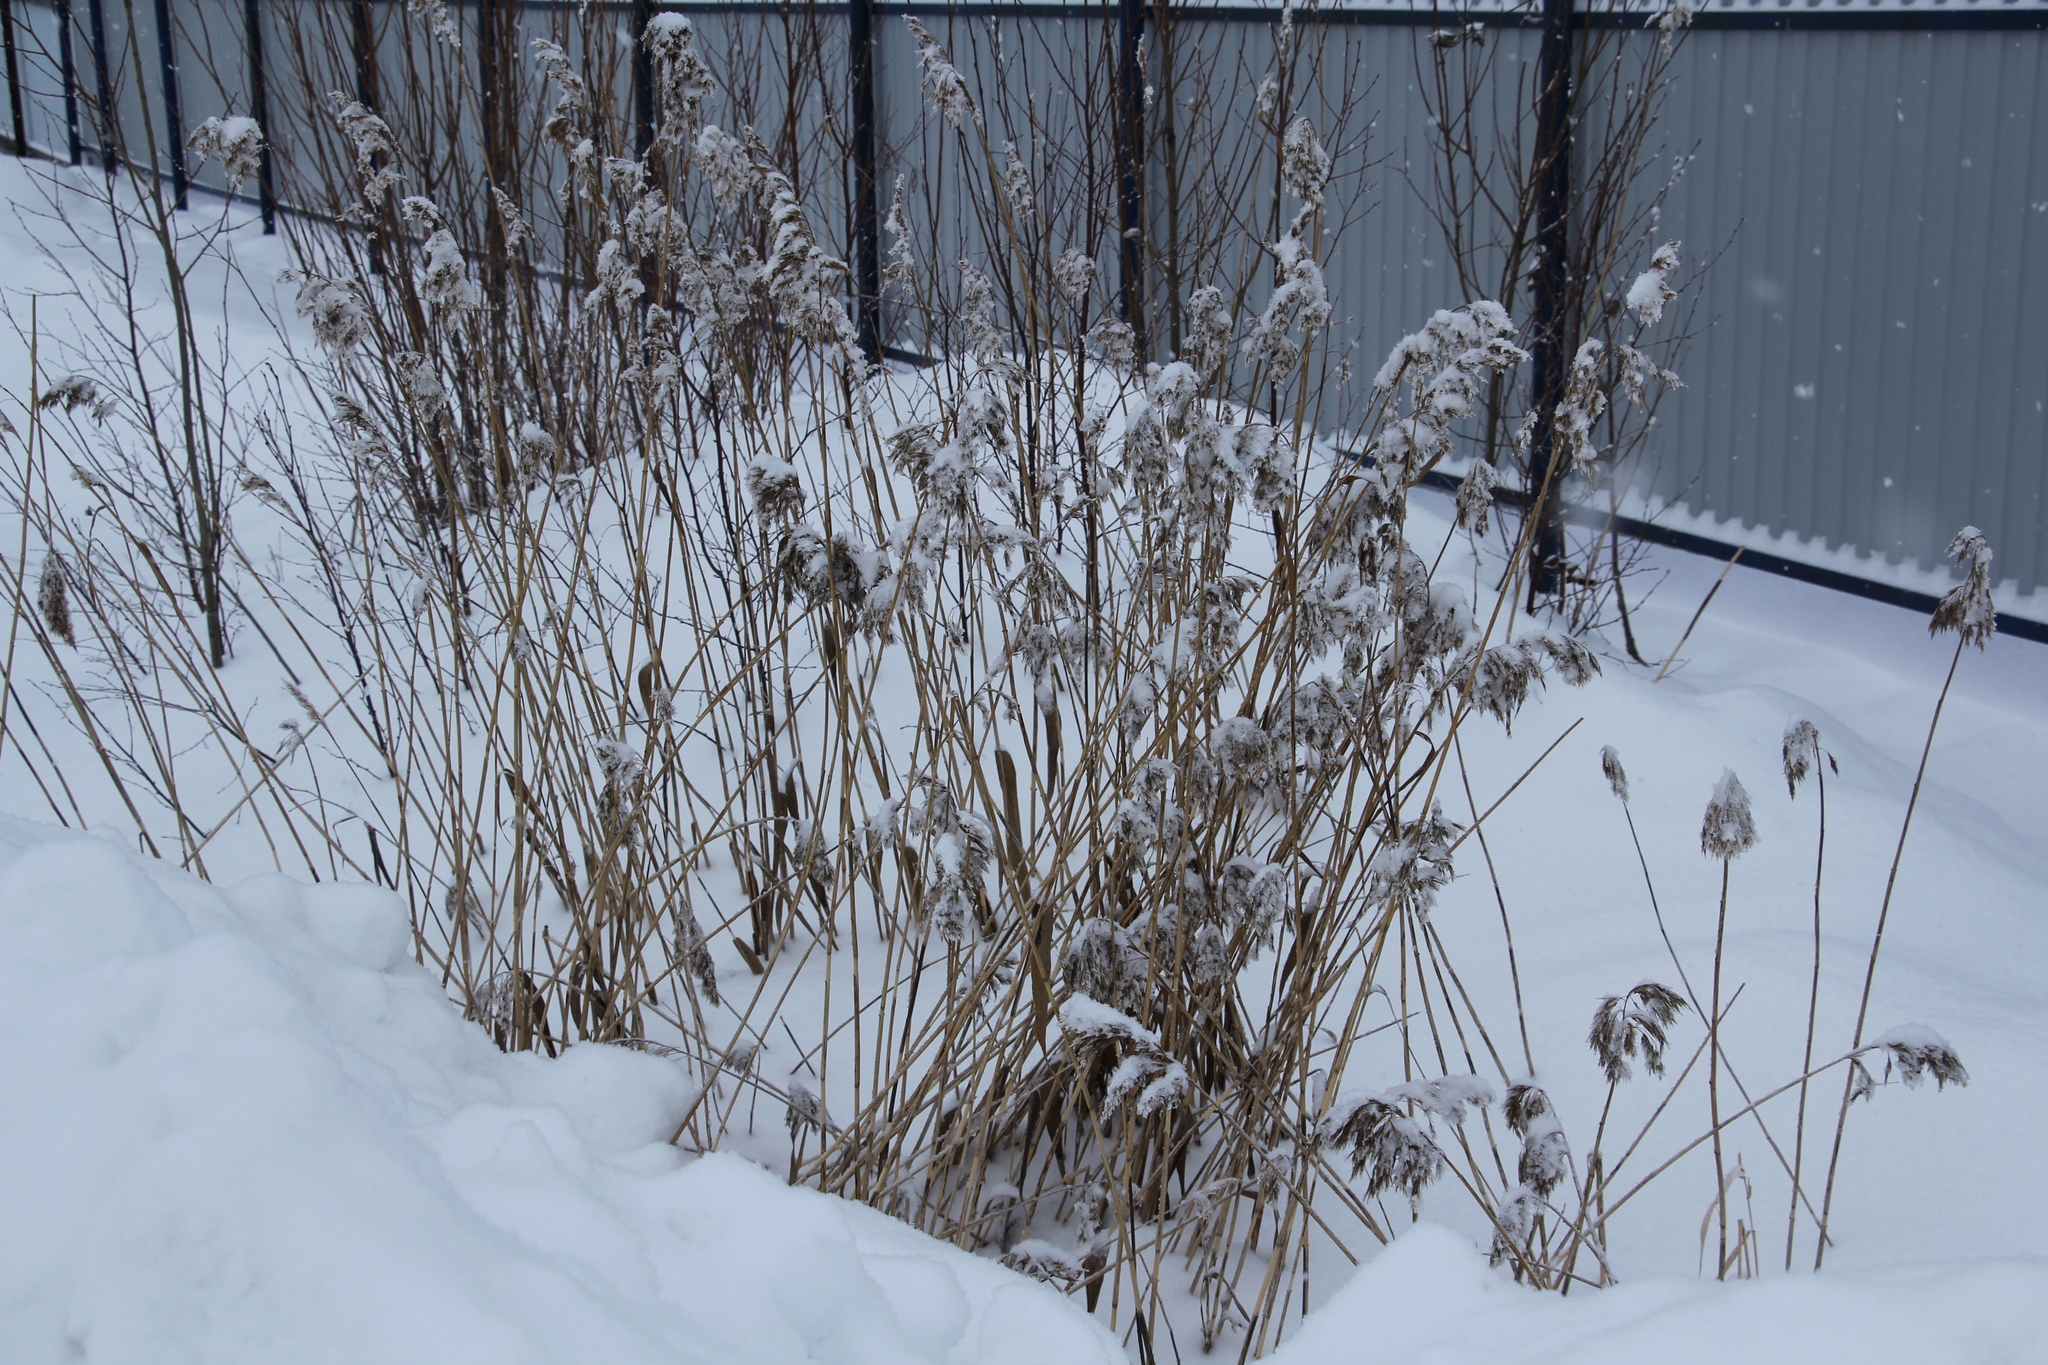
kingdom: Plantae
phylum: Tracheophyta
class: Liliopsida
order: Poales
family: Poaceae
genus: Phragmites
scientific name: Phragmites australis
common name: Common reed
